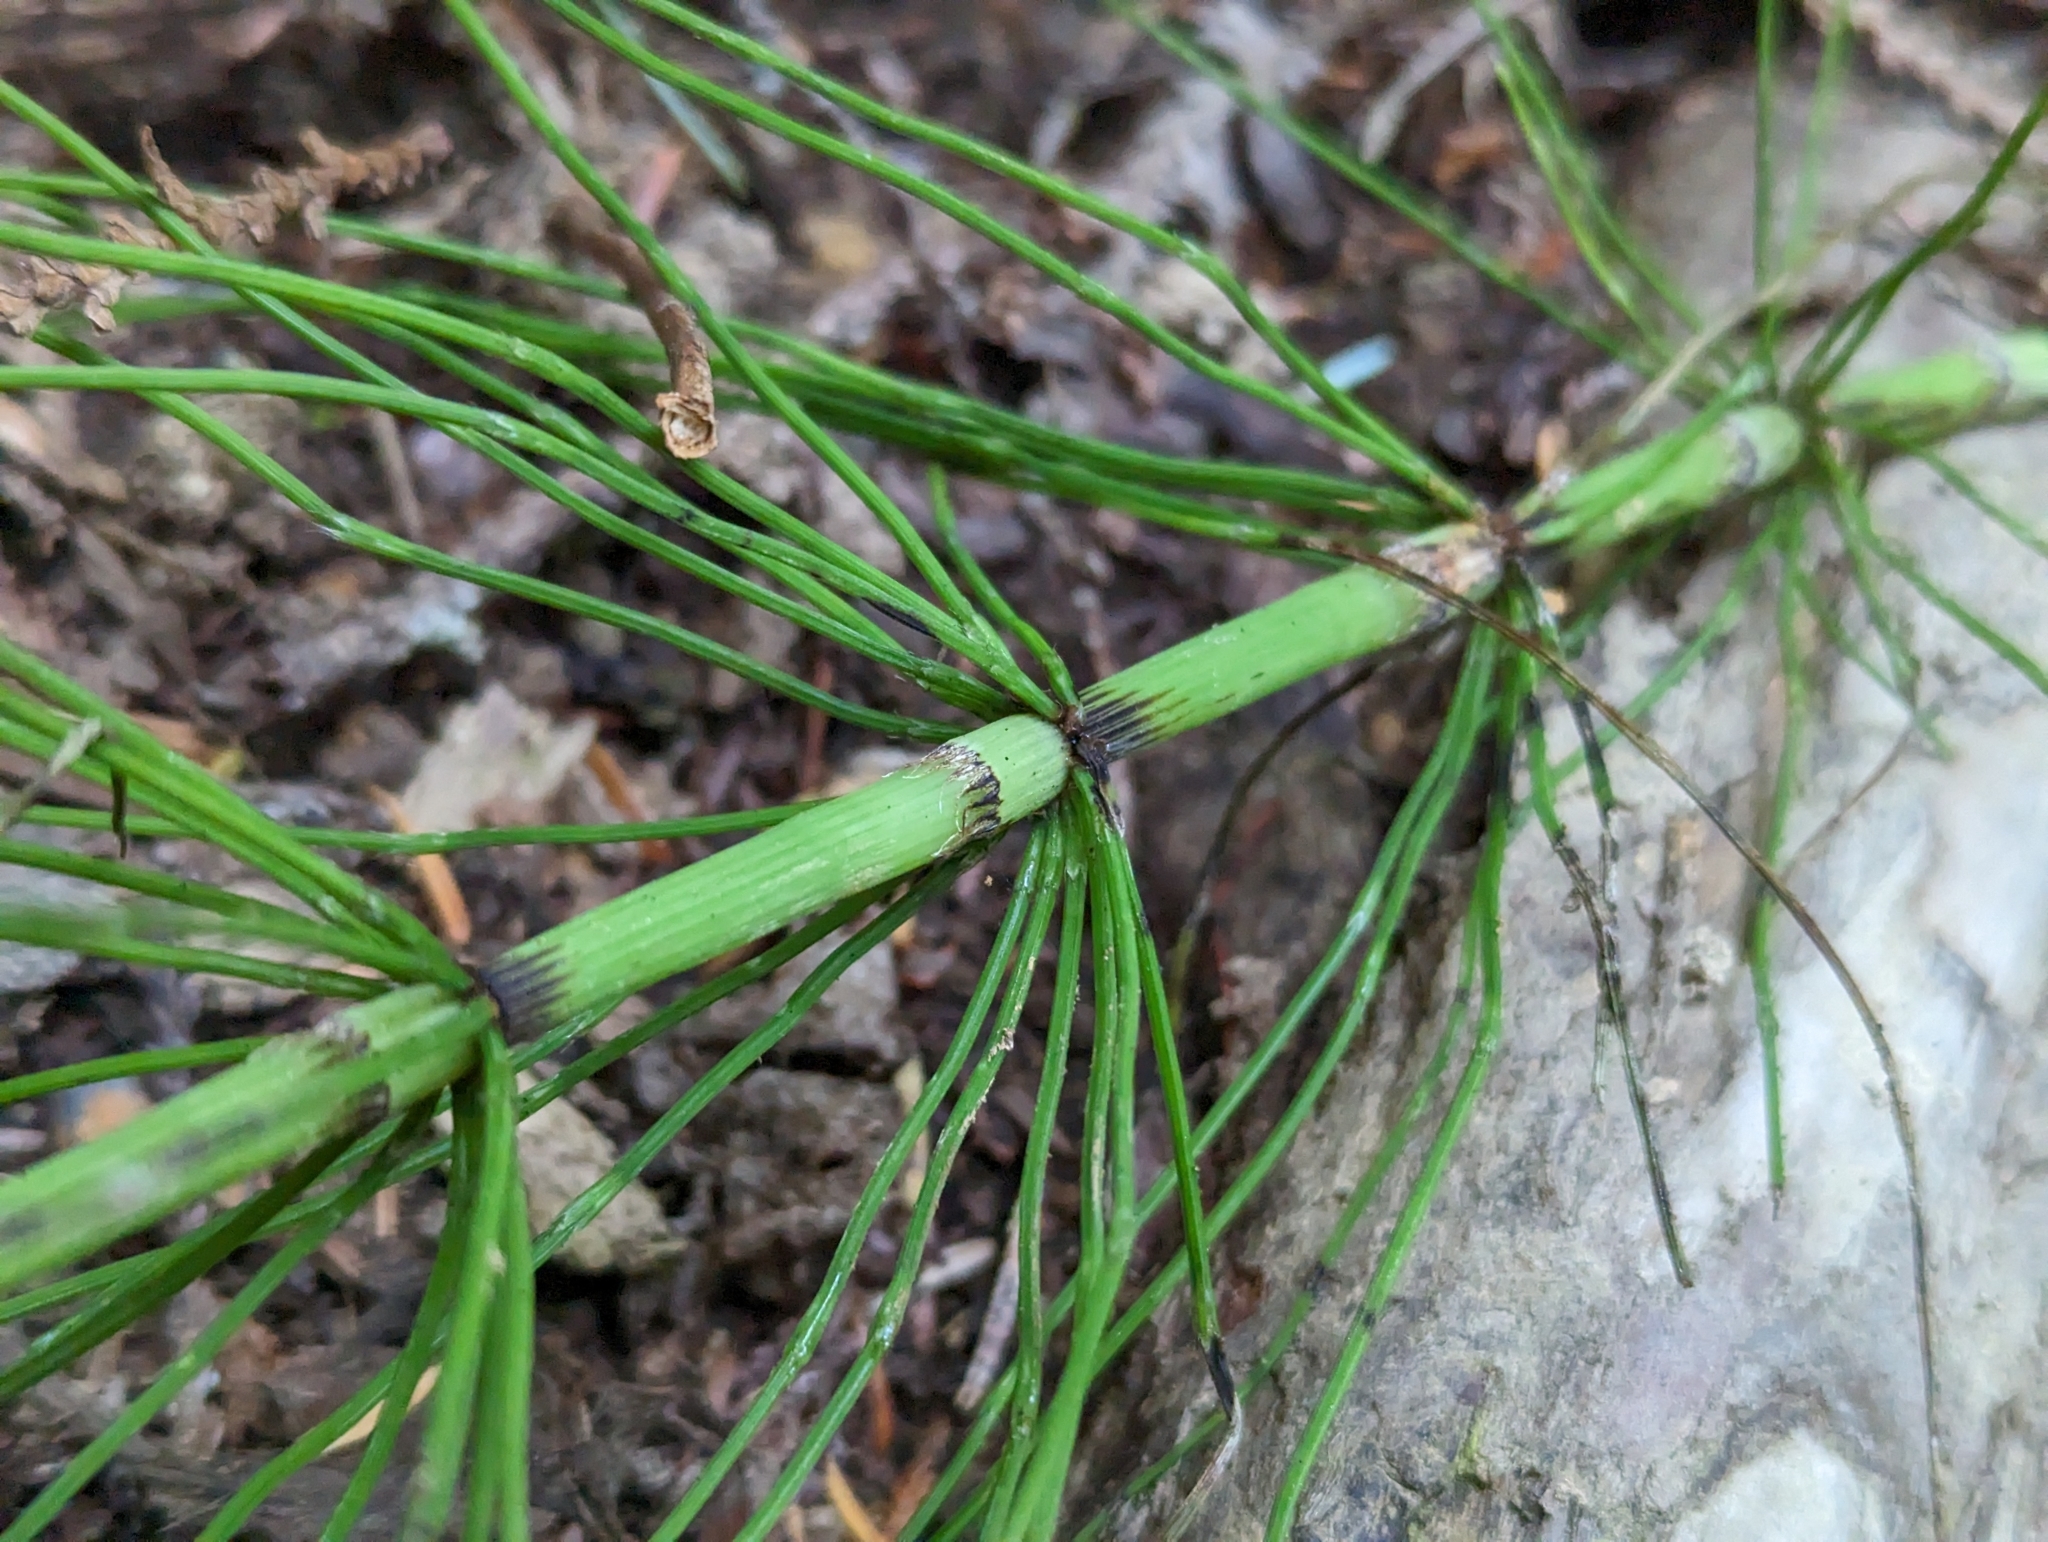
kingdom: Plantae
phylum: Tracheophyta
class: Polypodiopsida
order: Equisetales
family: Equisetaceae
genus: Equisetum
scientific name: Equisetum braunii
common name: Braun's horsetail
